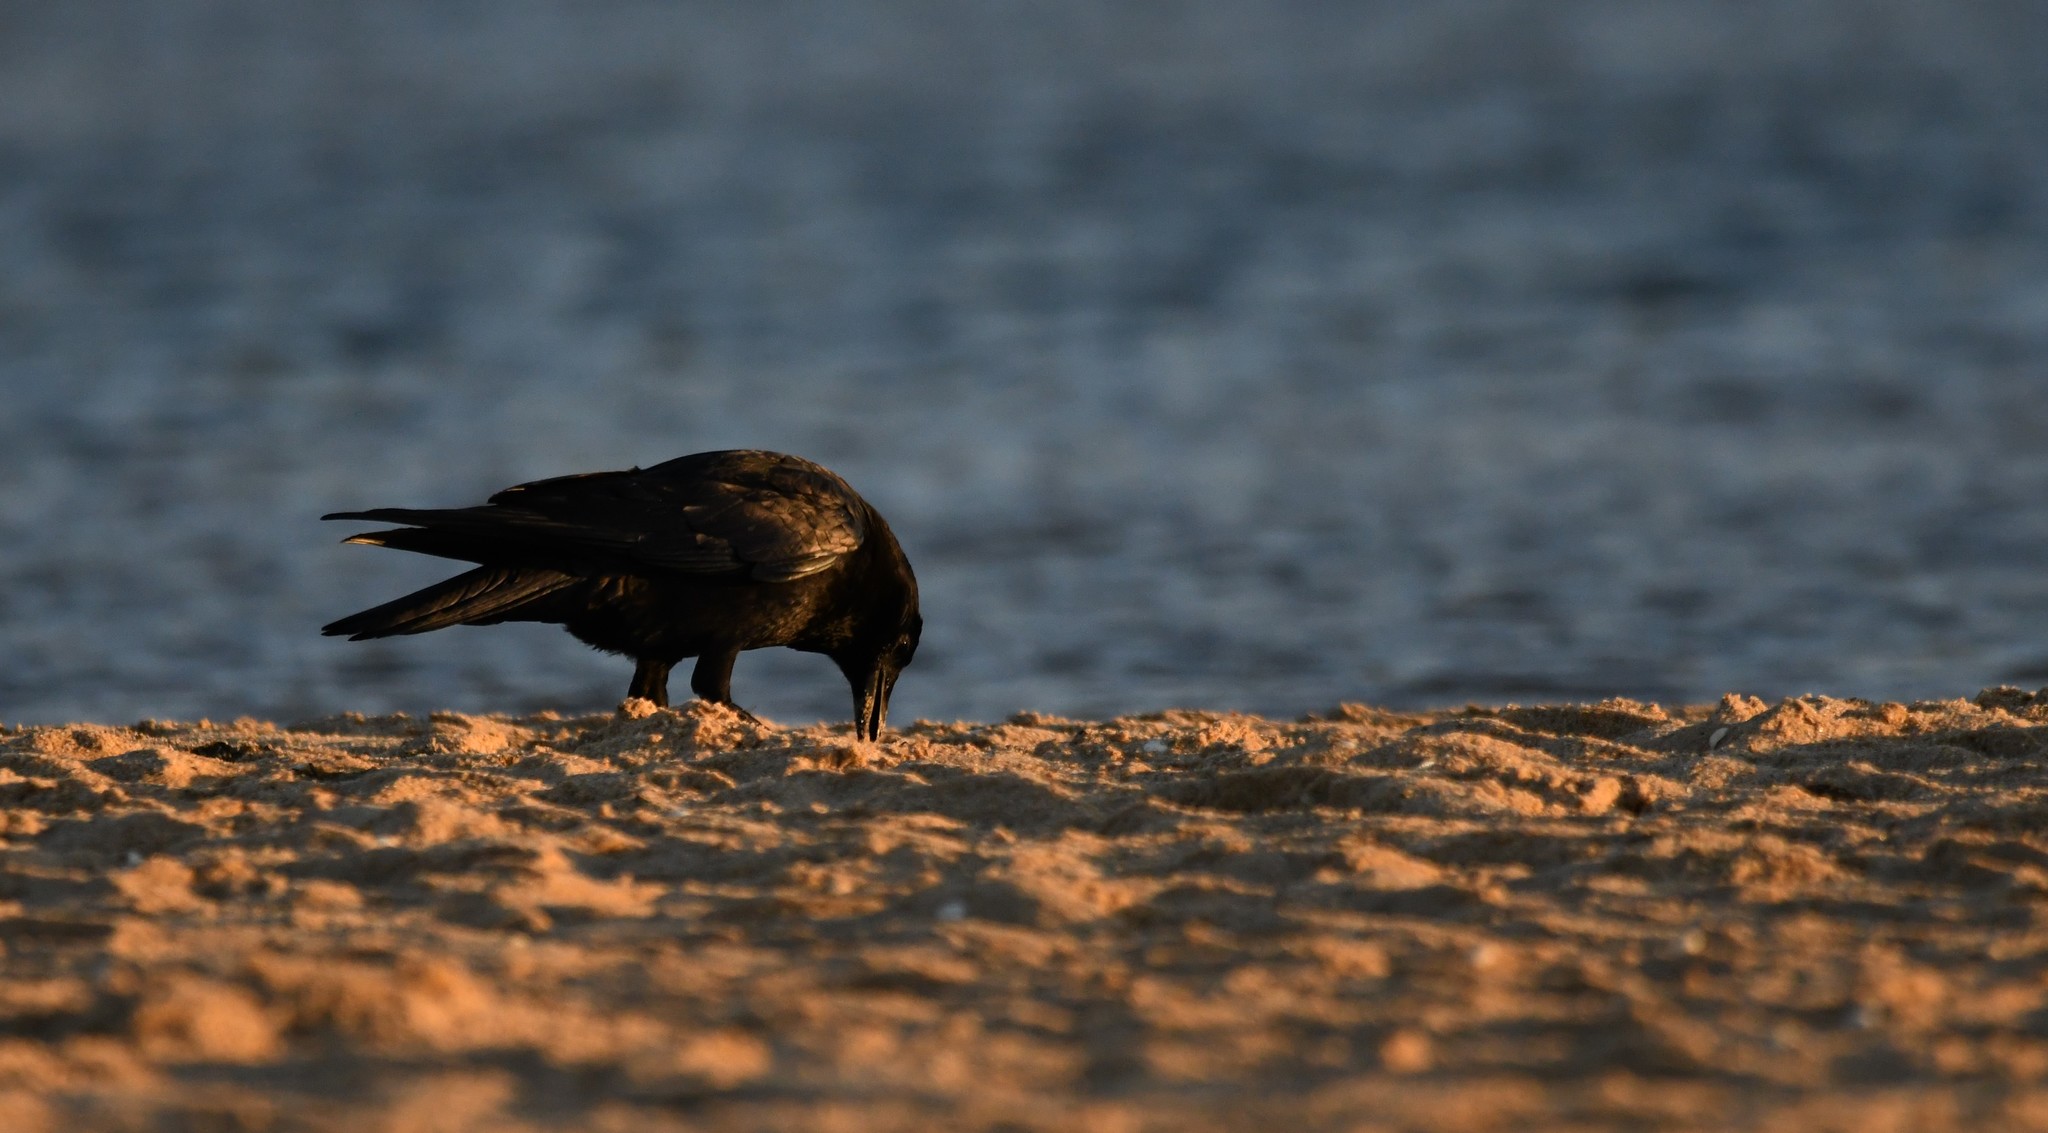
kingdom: Animalia
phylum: Chordata
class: Aves
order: Passeriformes
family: Corvidae
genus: Corvus
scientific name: Corvus corone
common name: Carrion crow
